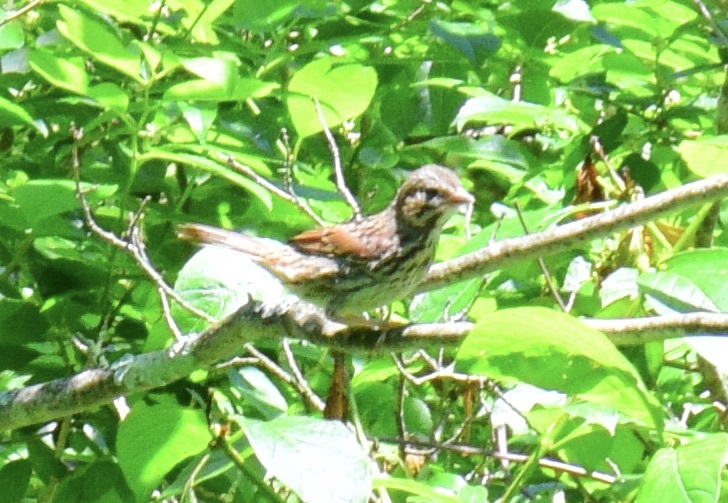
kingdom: Animalia
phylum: Chordata
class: Aves
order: Passeriformes
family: Passerellidae
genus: Melospiza
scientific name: Melospiza melodia
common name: Song sparrow
